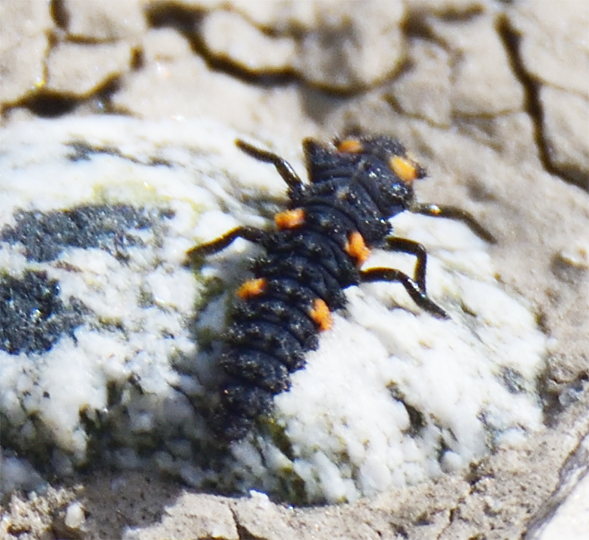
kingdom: Animalia
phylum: Arthropoda
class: Insecta
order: Coleoptera
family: Coccinellidae
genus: Coccinella
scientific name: Coccinella septempunctata
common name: Sevenspotted lady beetle
